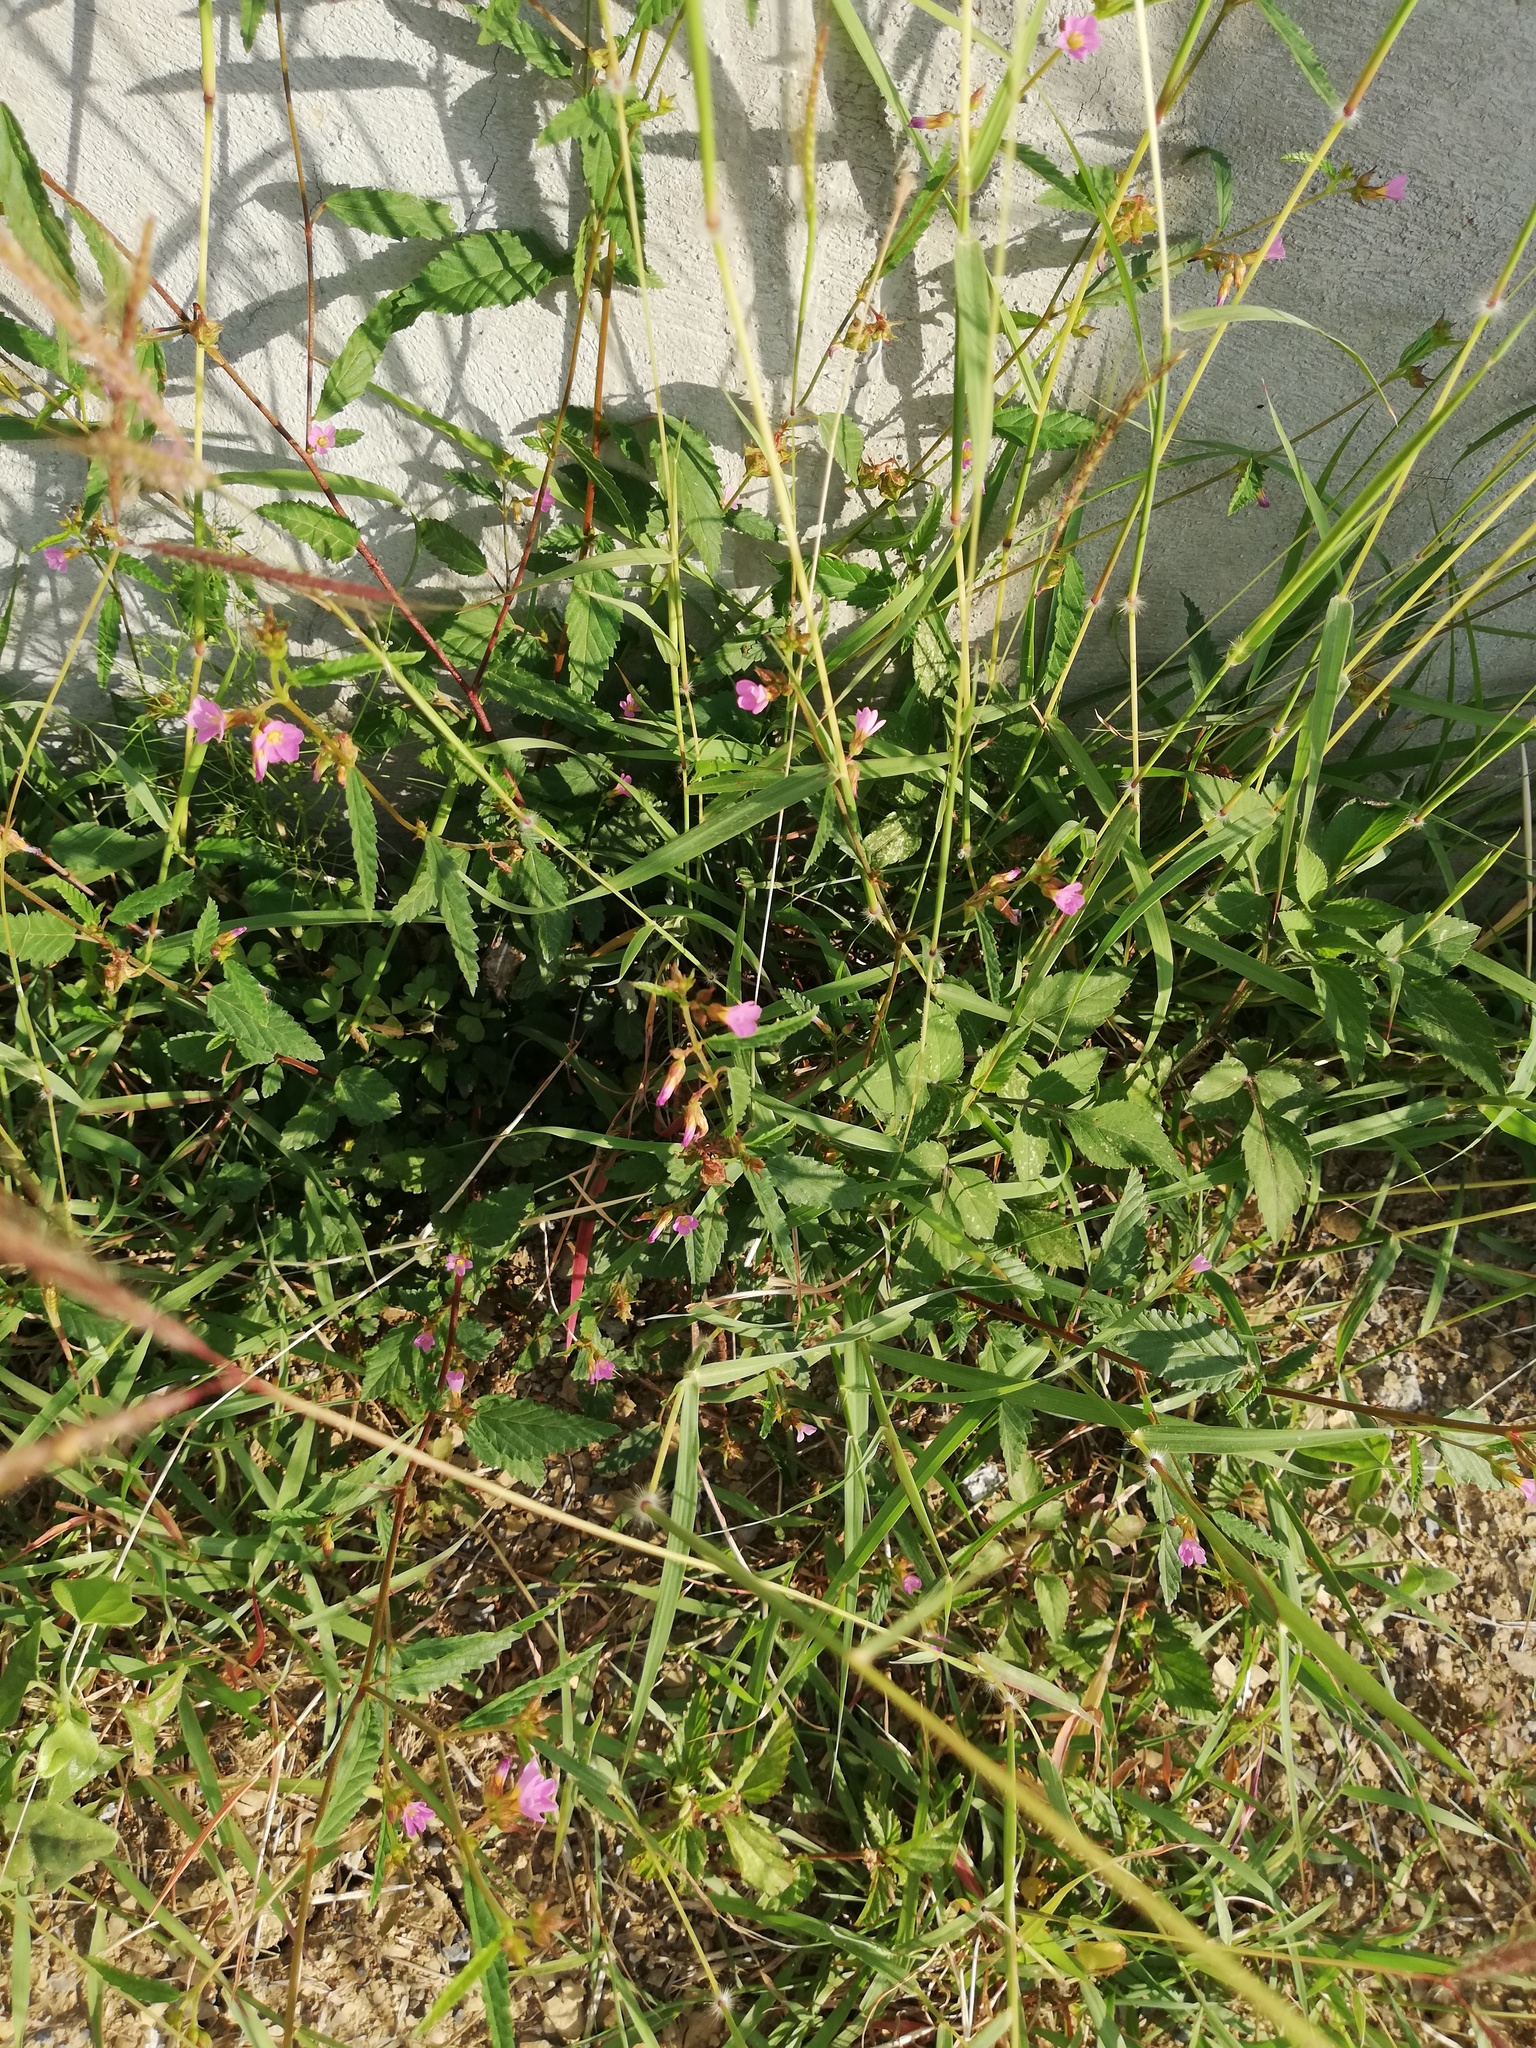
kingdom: Plantae
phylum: Tracheophyta
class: Magnoliopsida
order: Malvales
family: Malvaceae
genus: Melochia
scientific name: Melochia pyramidata
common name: Pyramidflower
